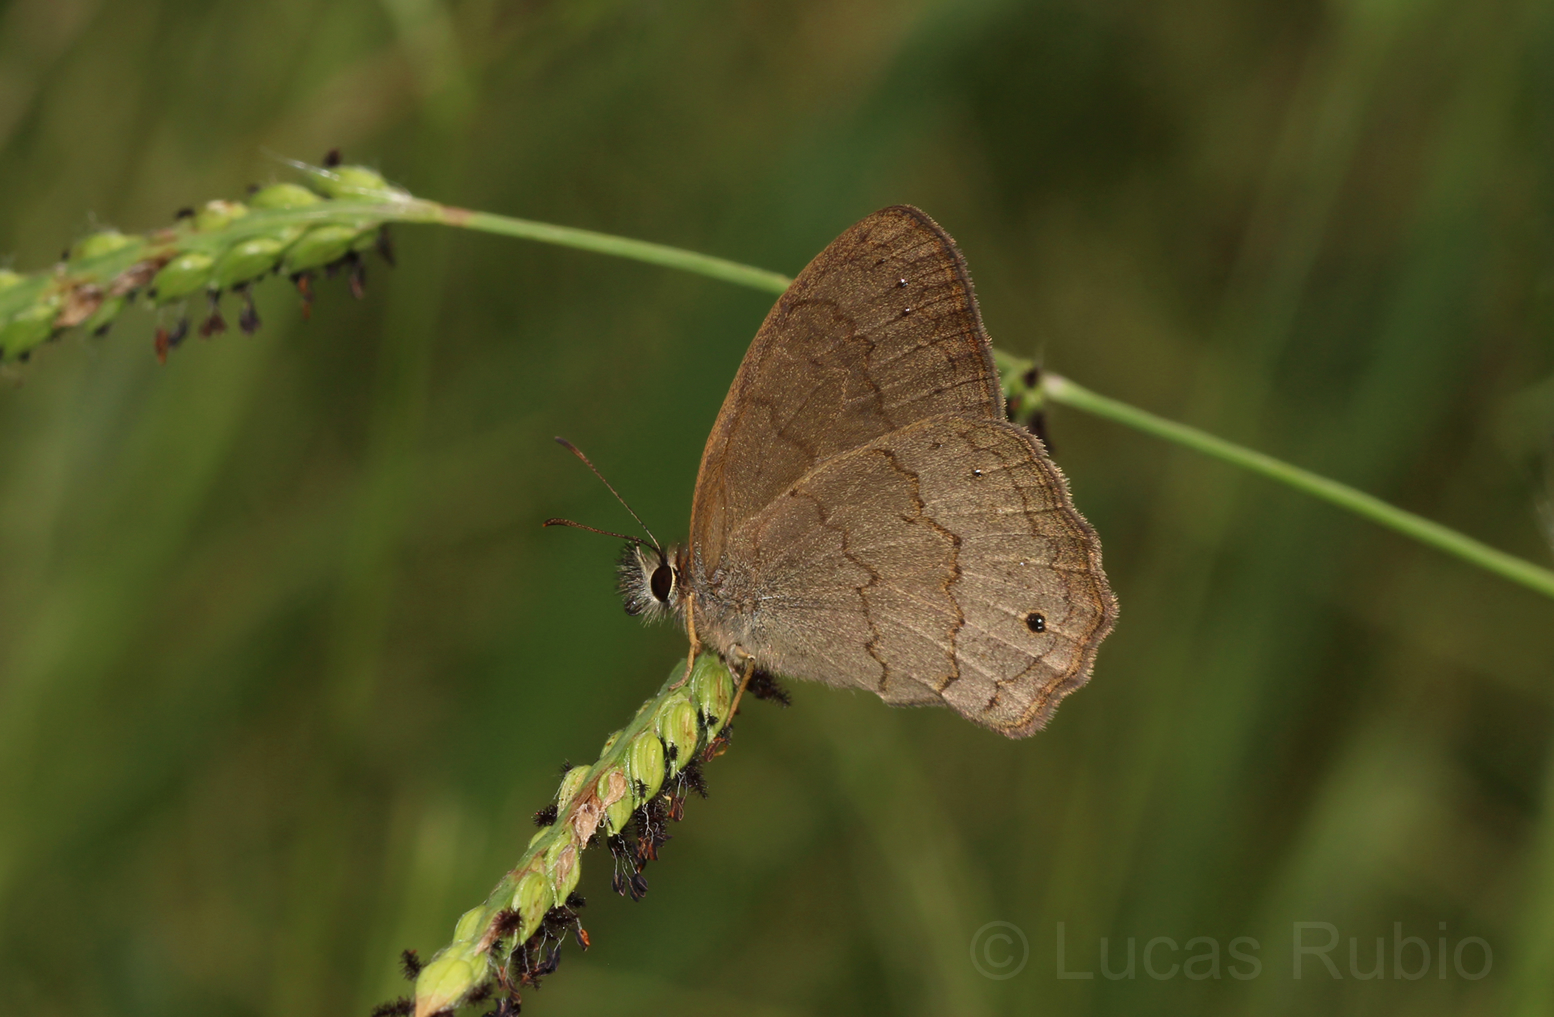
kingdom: Animalia
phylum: Arthropoda
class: Insecta
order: Lepidoptera
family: Nymphalidae
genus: Euptychia
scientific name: Euptychia
